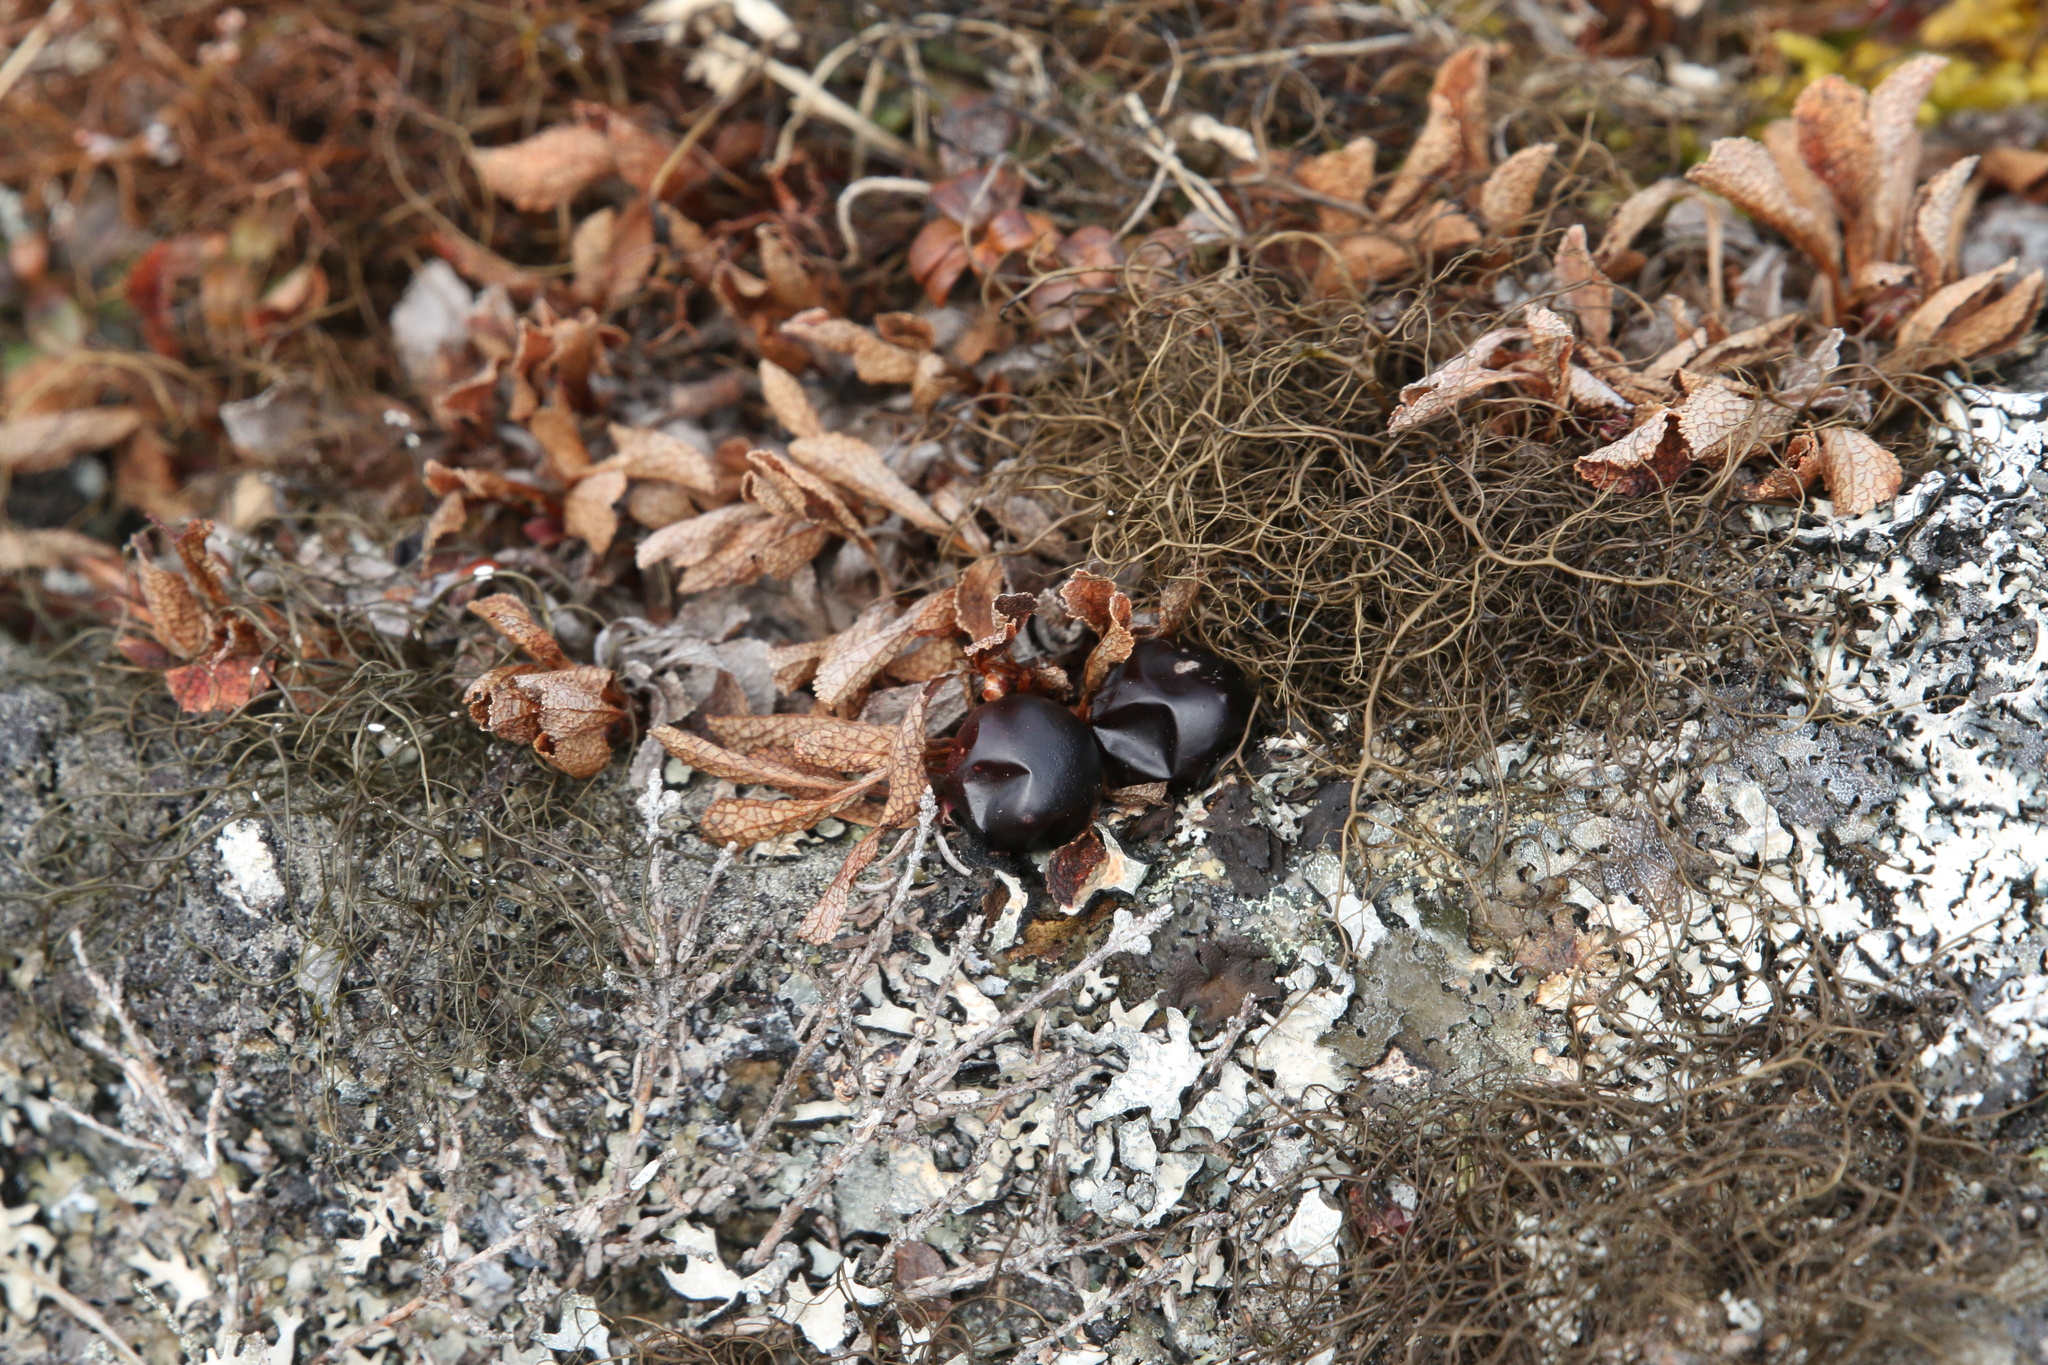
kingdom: Plantae
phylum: Tracheophyta
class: Magnoliopsida
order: Ericales
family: Ericaceae
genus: Empetrum
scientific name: Empetrum nigrum
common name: Black crowberry
